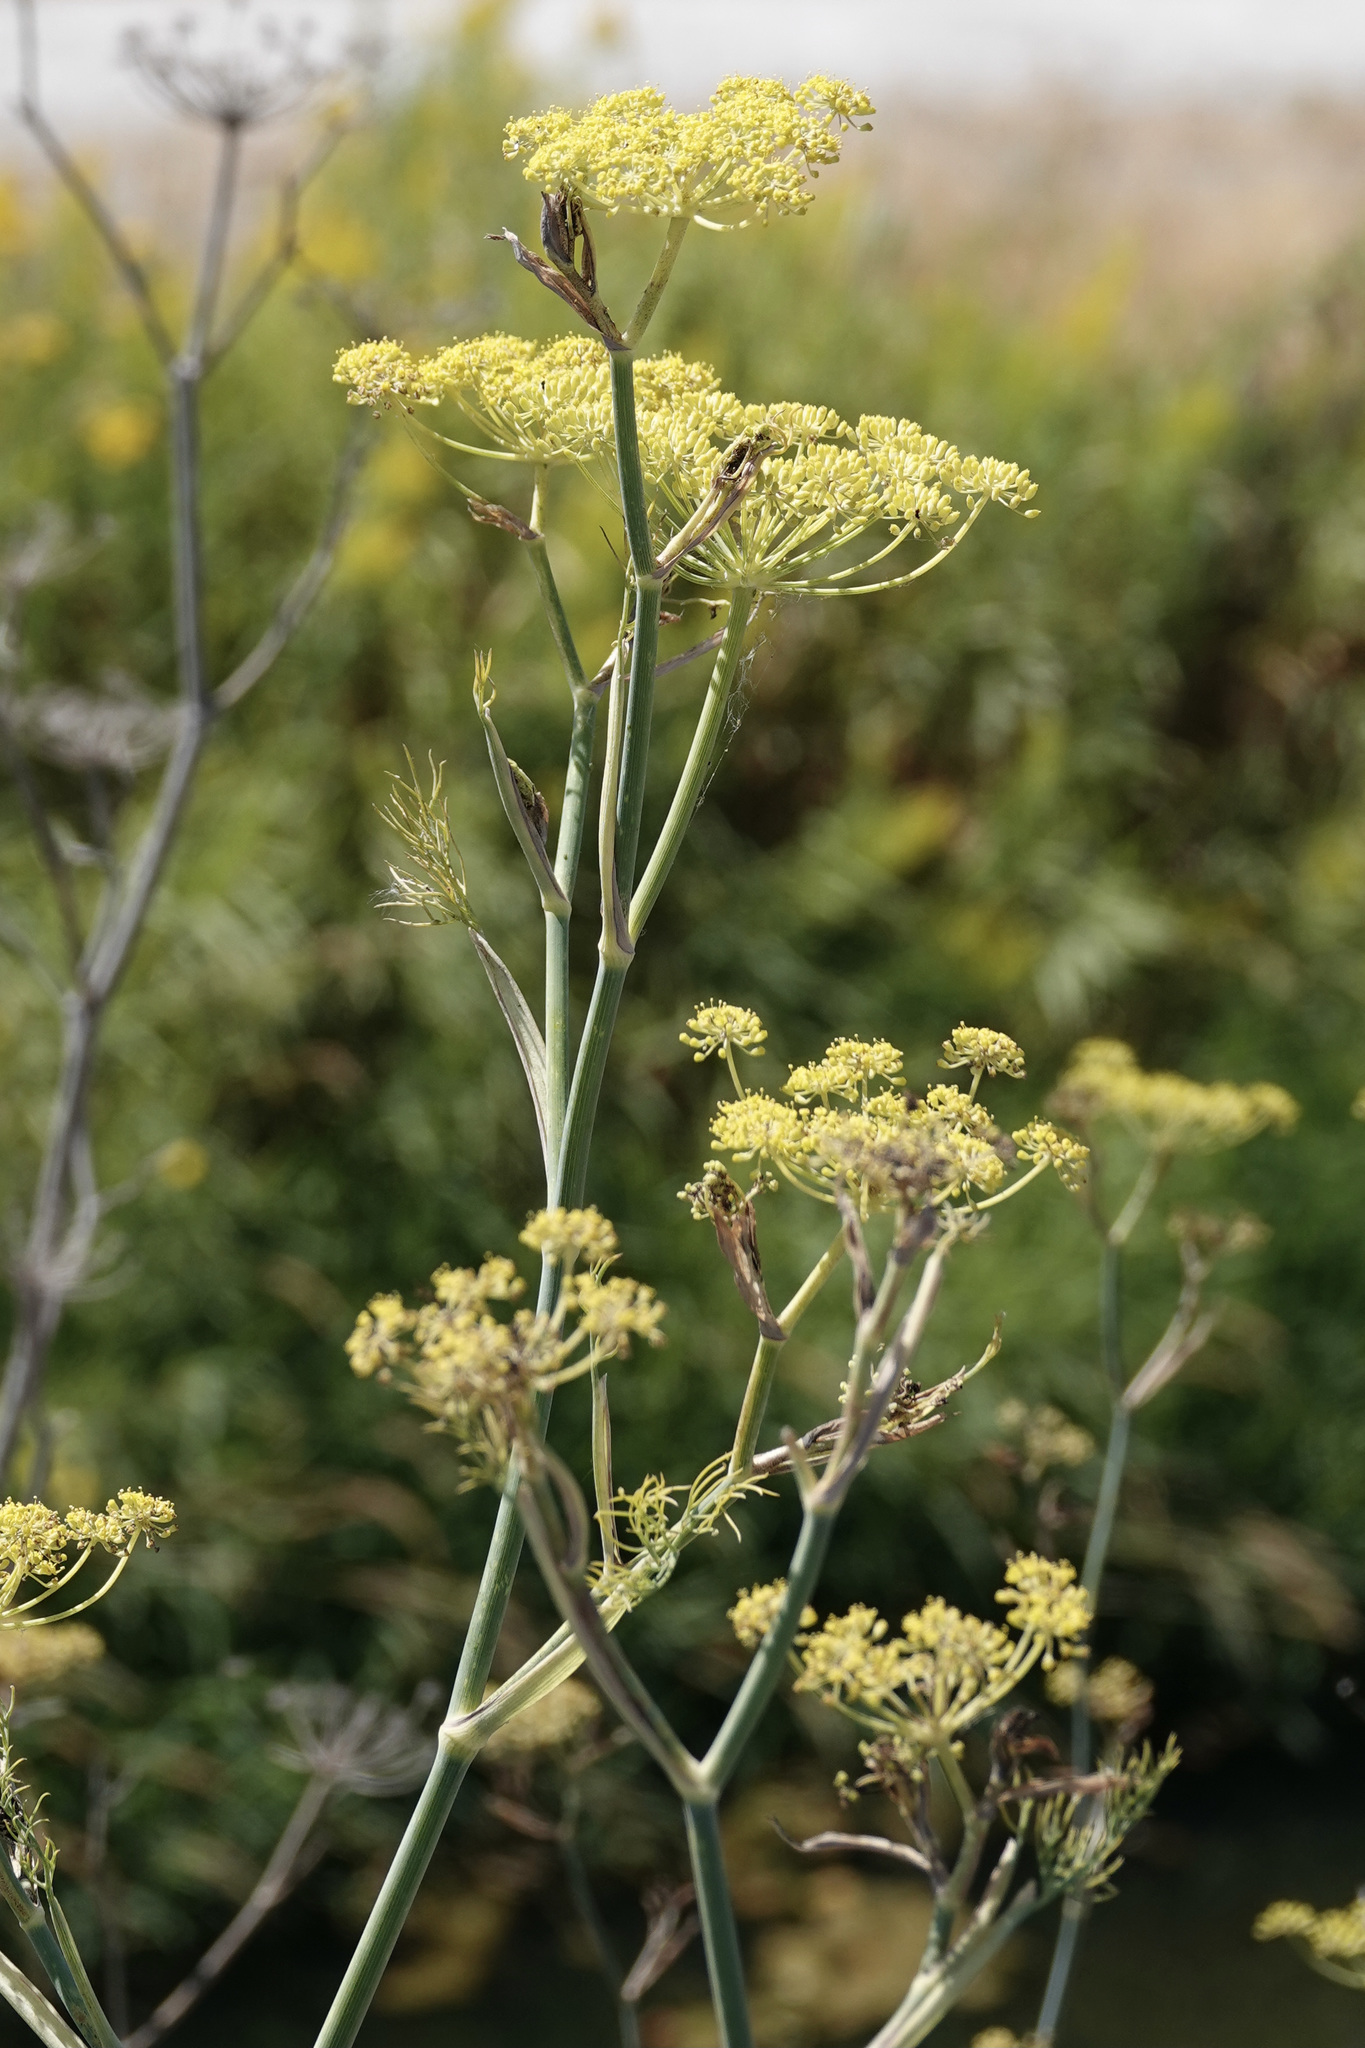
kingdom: Plantae
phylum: Tracheophyta
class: Magnoliopsida
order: Apiales
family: Apiaceae
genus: Anethum
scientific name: Anethum graveolens
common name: Dill
